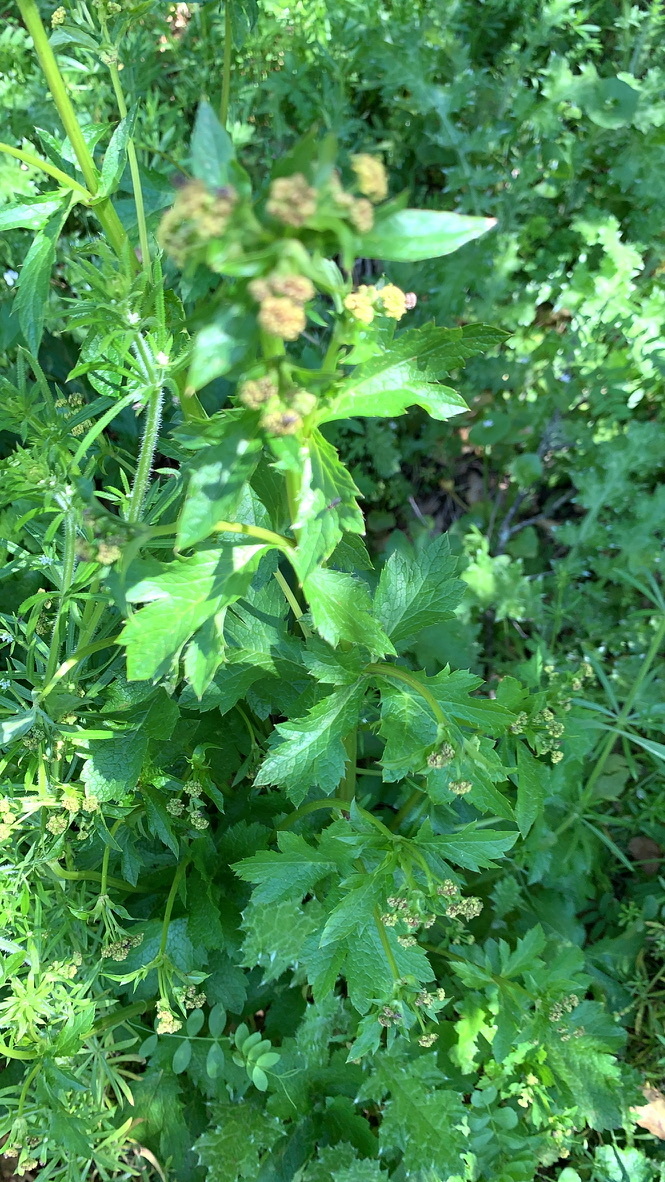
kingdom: Plantae
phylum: Tracheophyta
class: Magnoliopsida
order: Apiales
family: Apiaceae
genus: Sanicula
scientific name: Sanicula crassicaulis
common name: Western snakeroot
